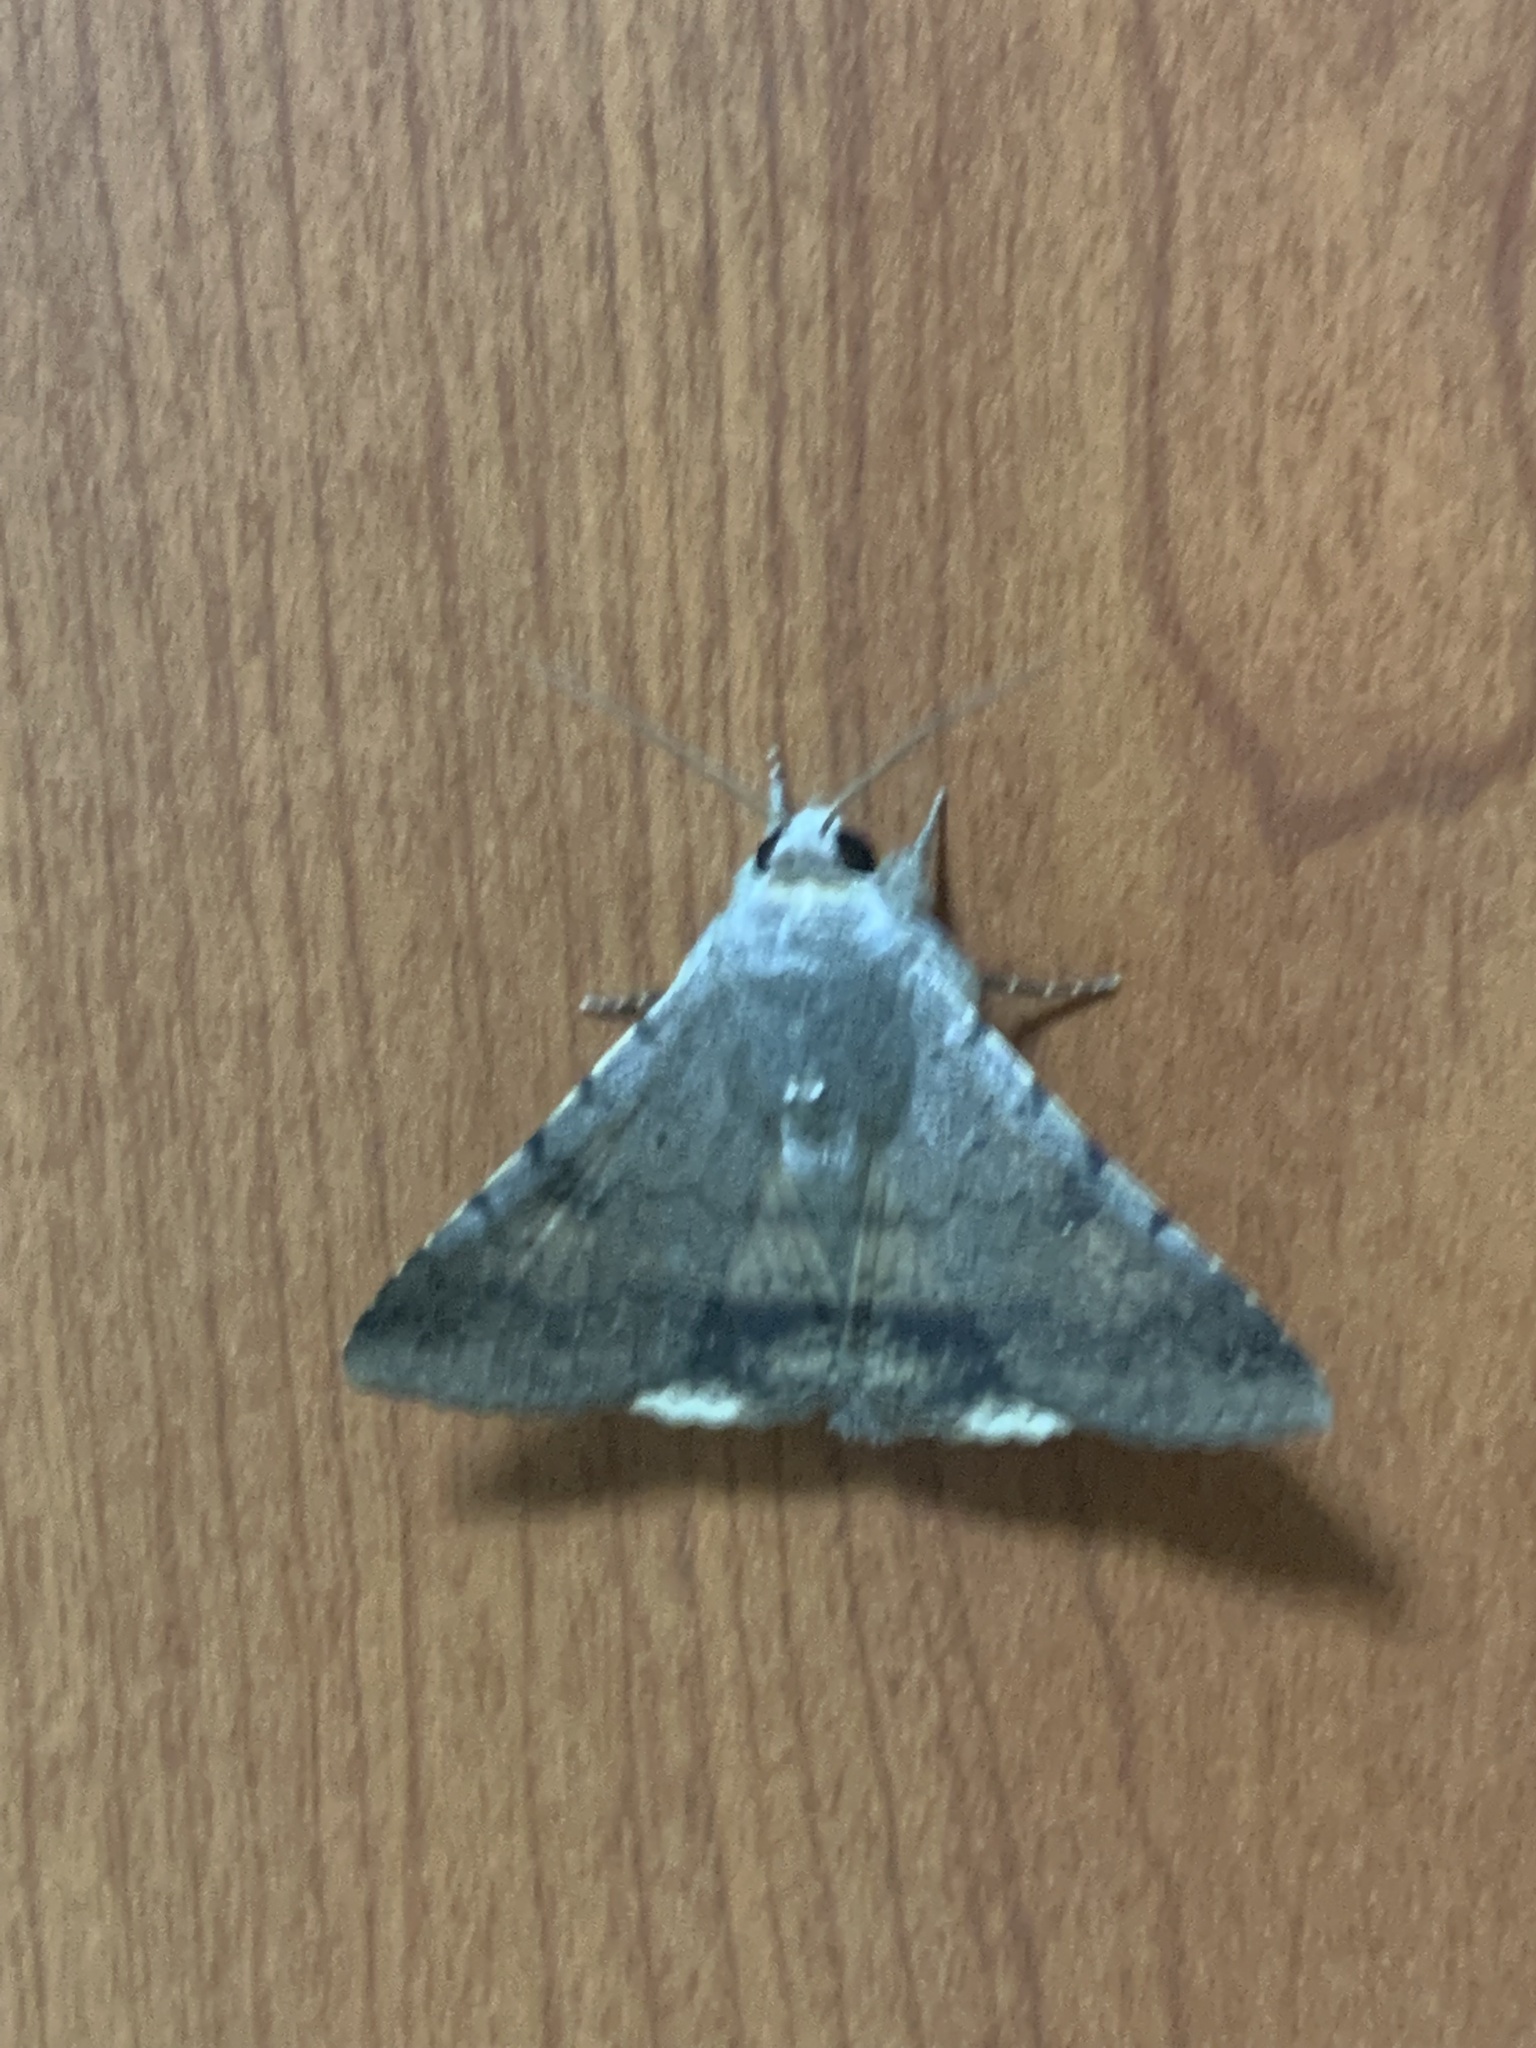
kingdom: Animalia
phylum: Arthropoda
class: Insecta
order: Lepidoptera
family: Erebidae
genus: Pandesma
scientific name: Pandesma quenavadi
